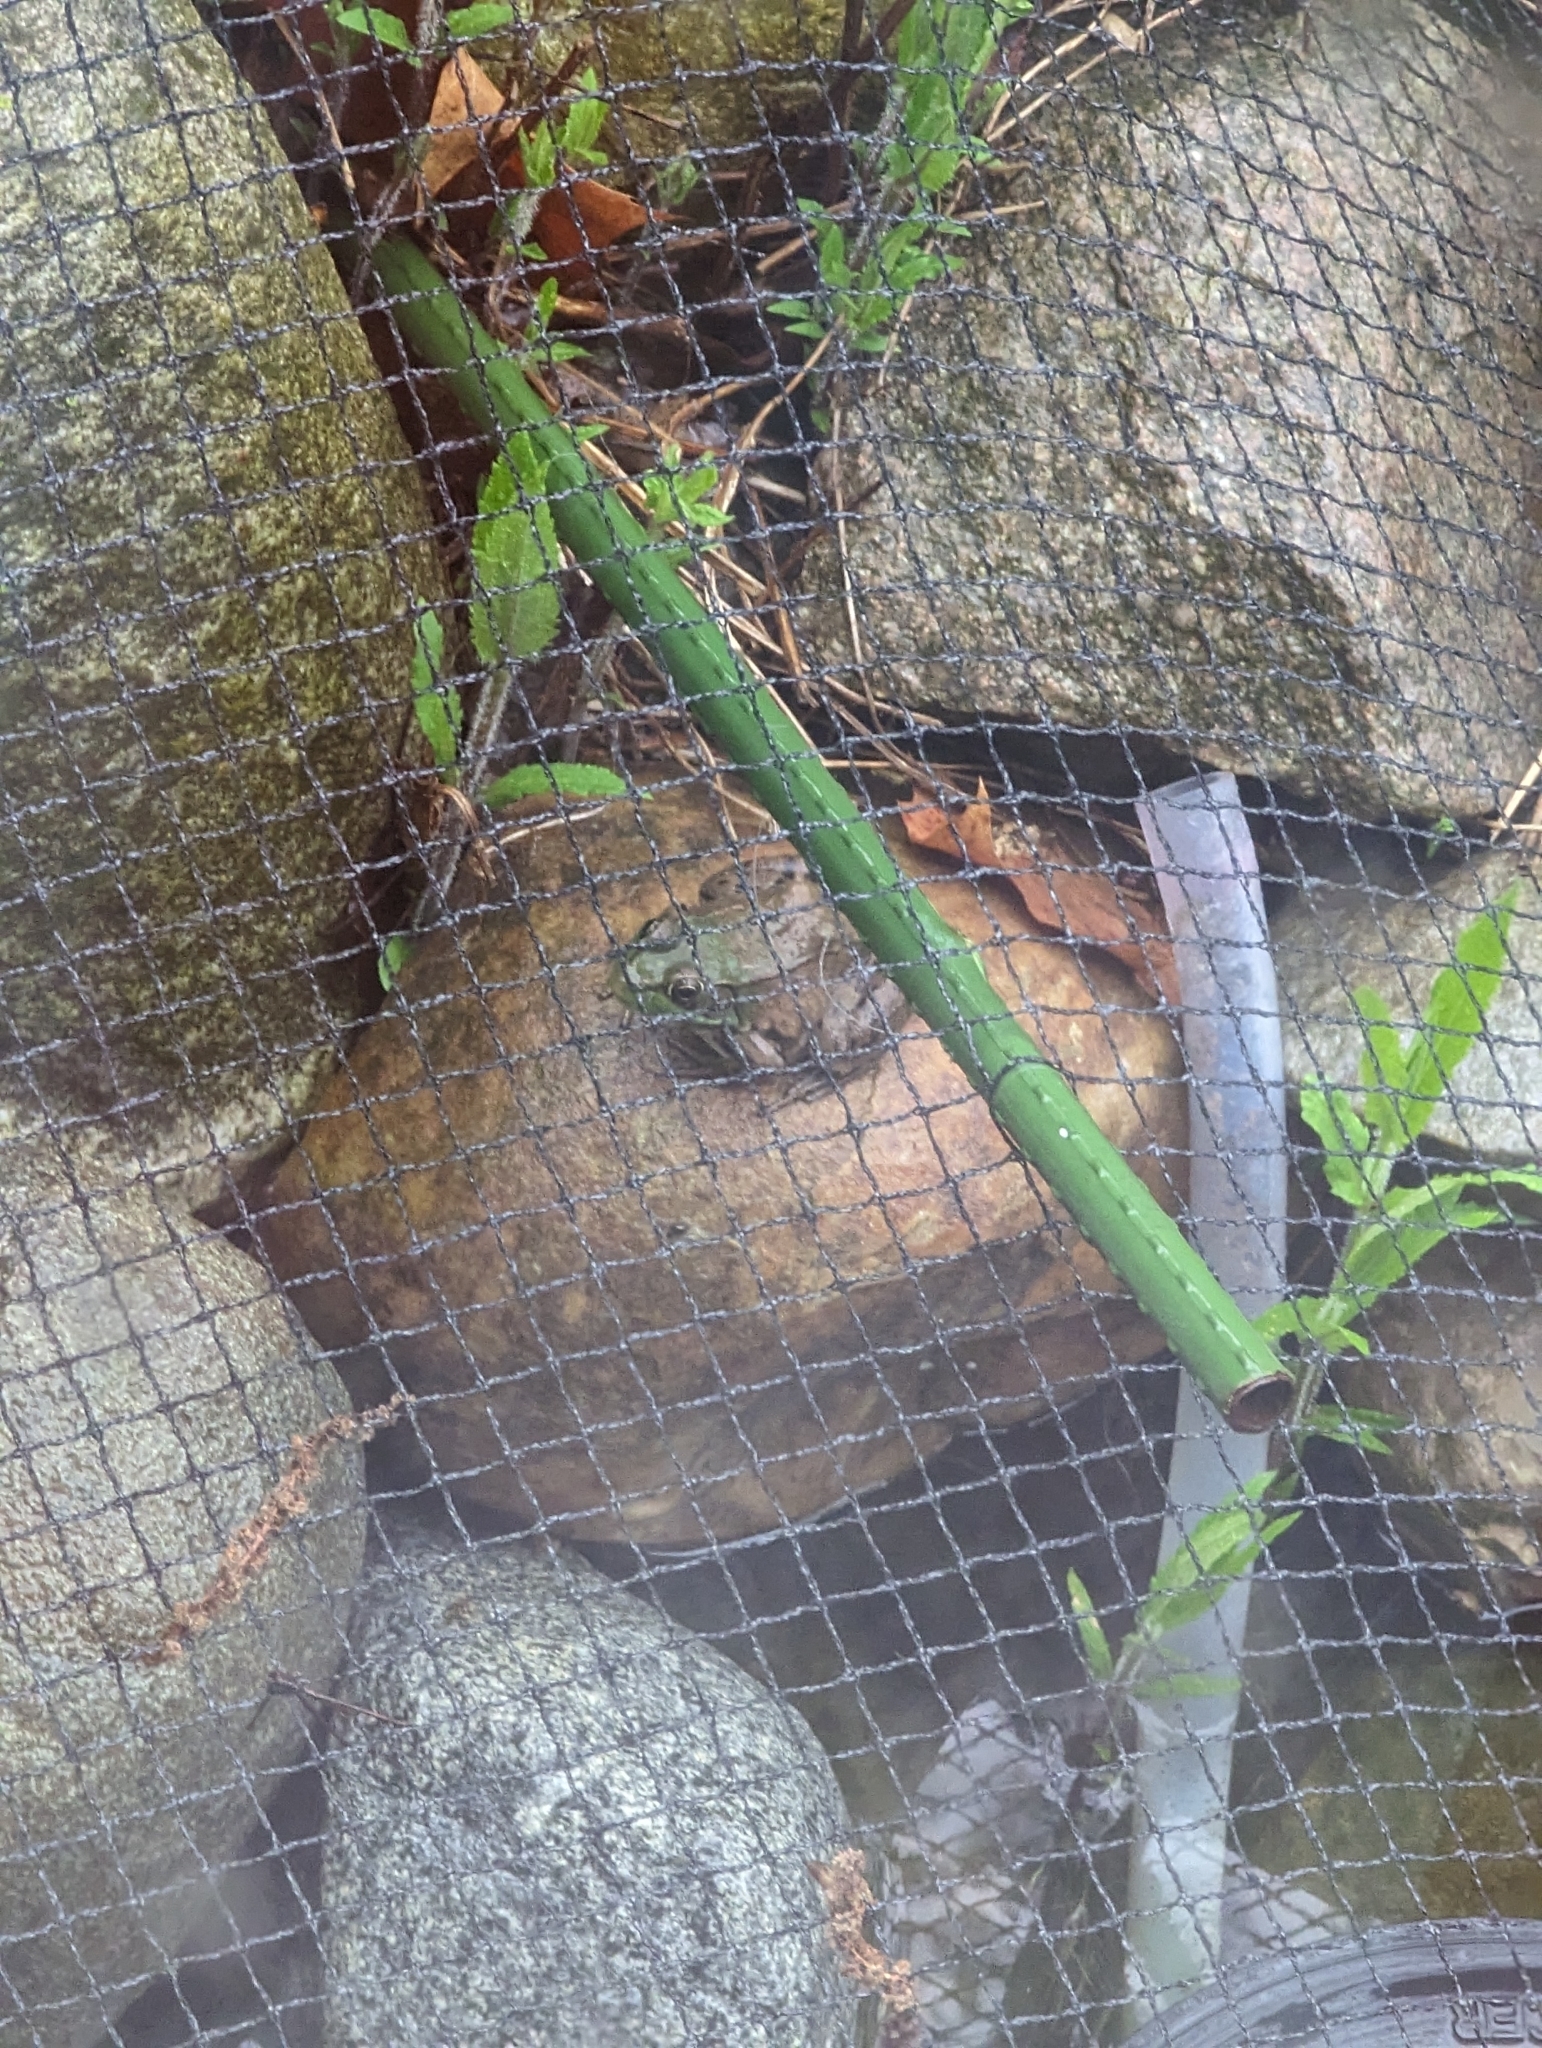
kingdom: Animalia
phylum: Chordata
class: Amphibia
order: Anura
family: Ranidae
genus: Lithobates
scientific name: Lithobates clamitans
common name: Green frog
